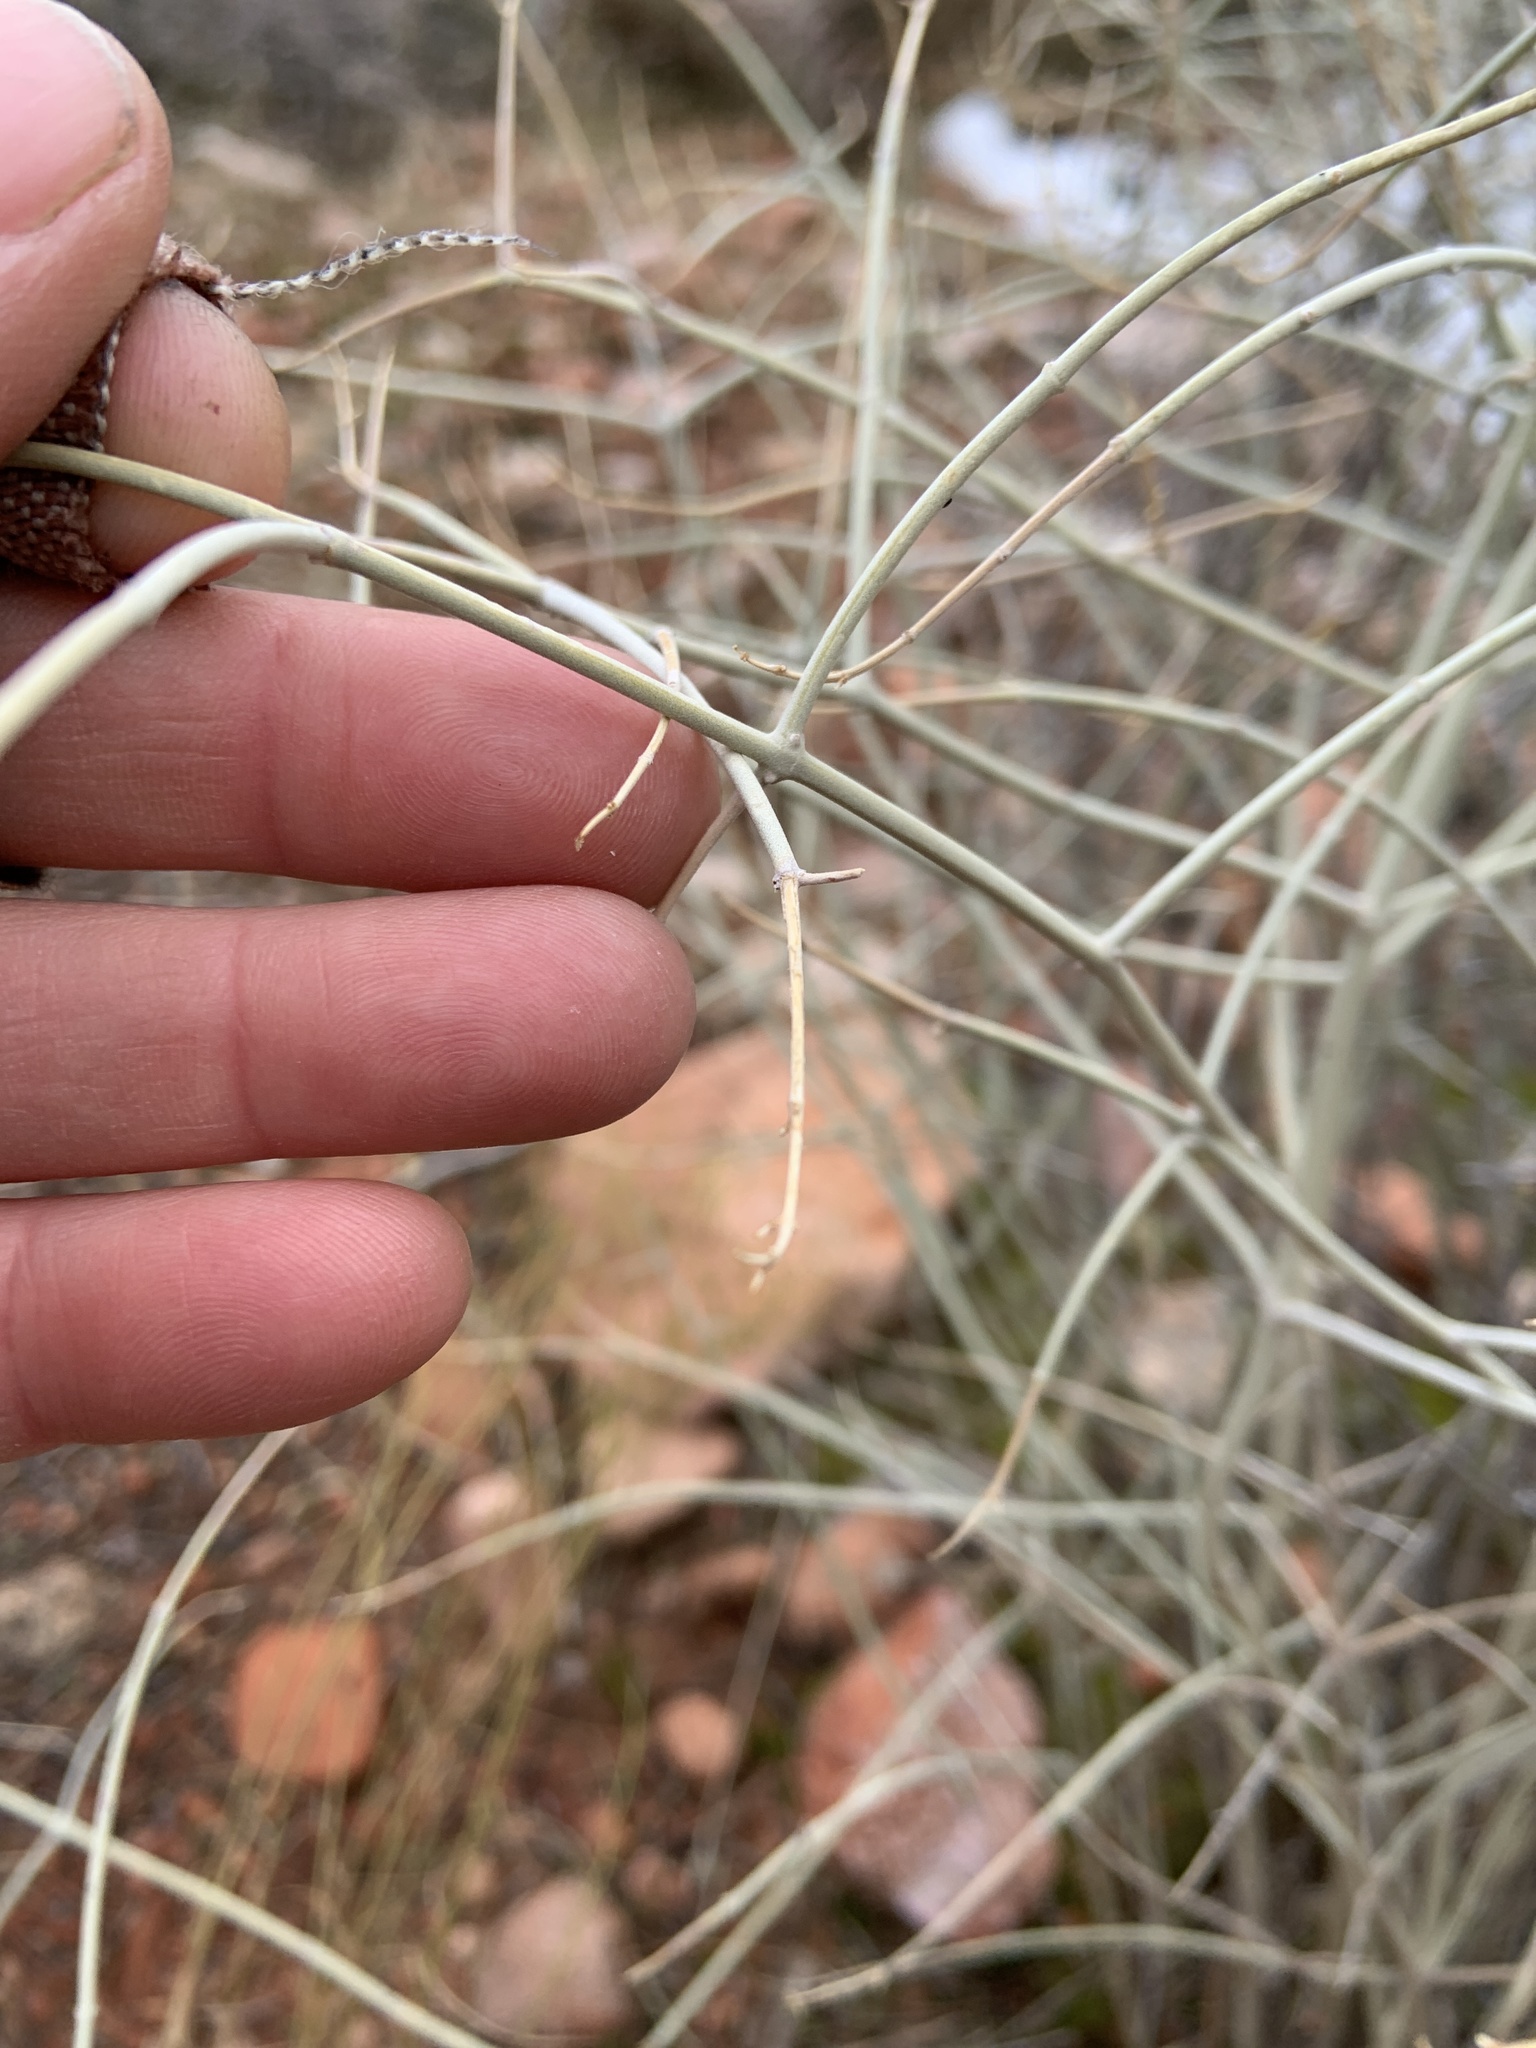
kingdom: Plantae
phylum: Tracheophyta
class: Magnoliopsida
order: Lamiales
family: Lamiaceae
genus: Scutellaria
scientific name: Scutellaria mexicana
